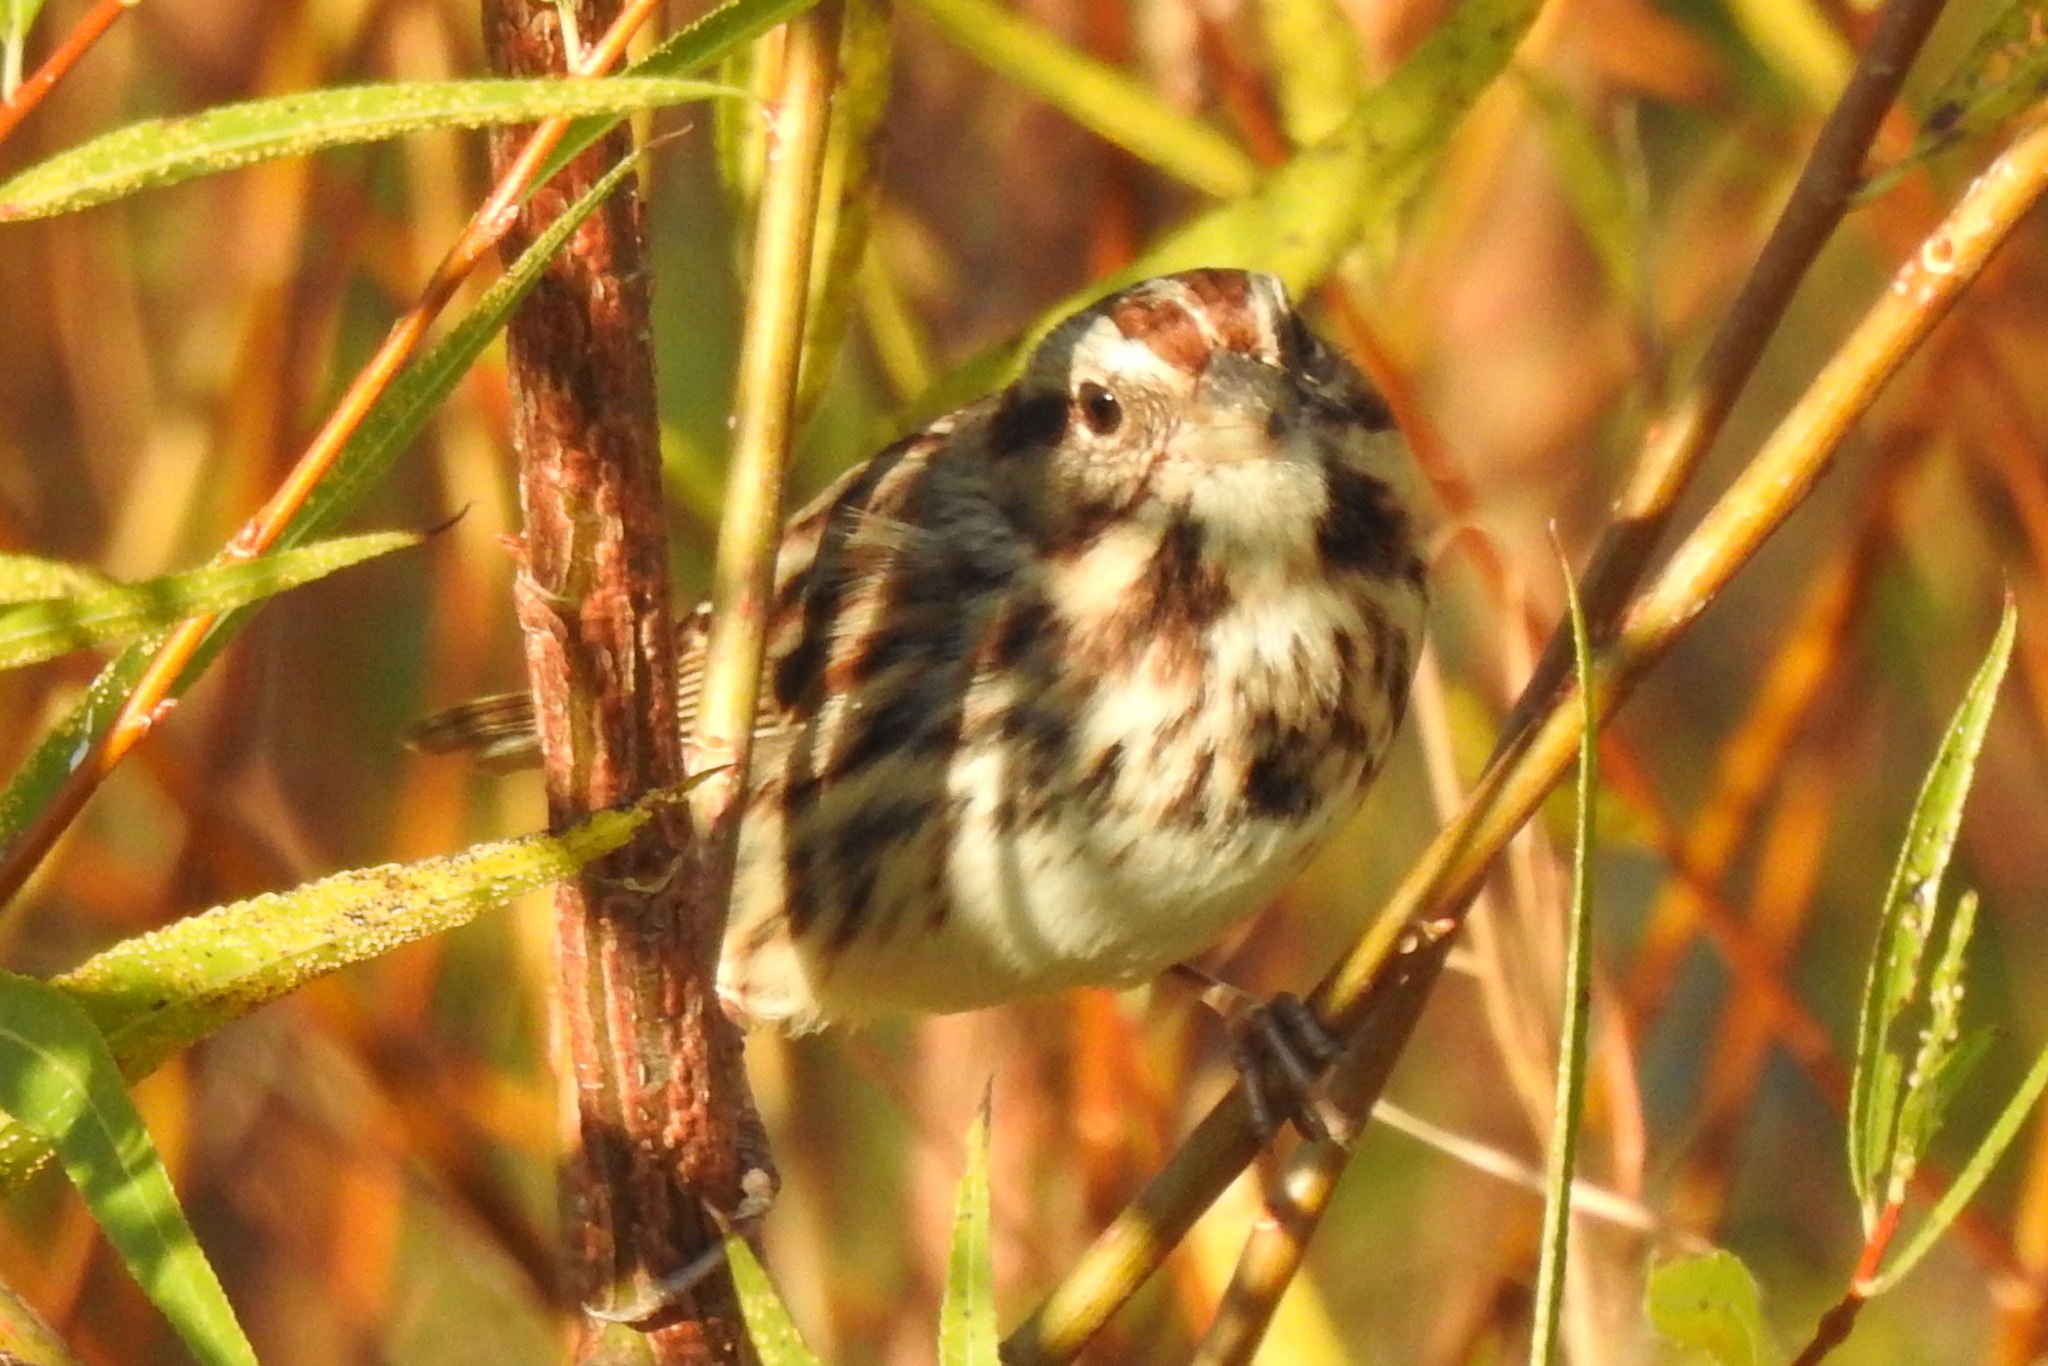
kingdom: Animalia
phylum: Chordata
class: Aves
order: Passeriformes
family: Passerellidae
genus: Melospiza
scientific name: Melospiza melodia
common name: Song sparrow
